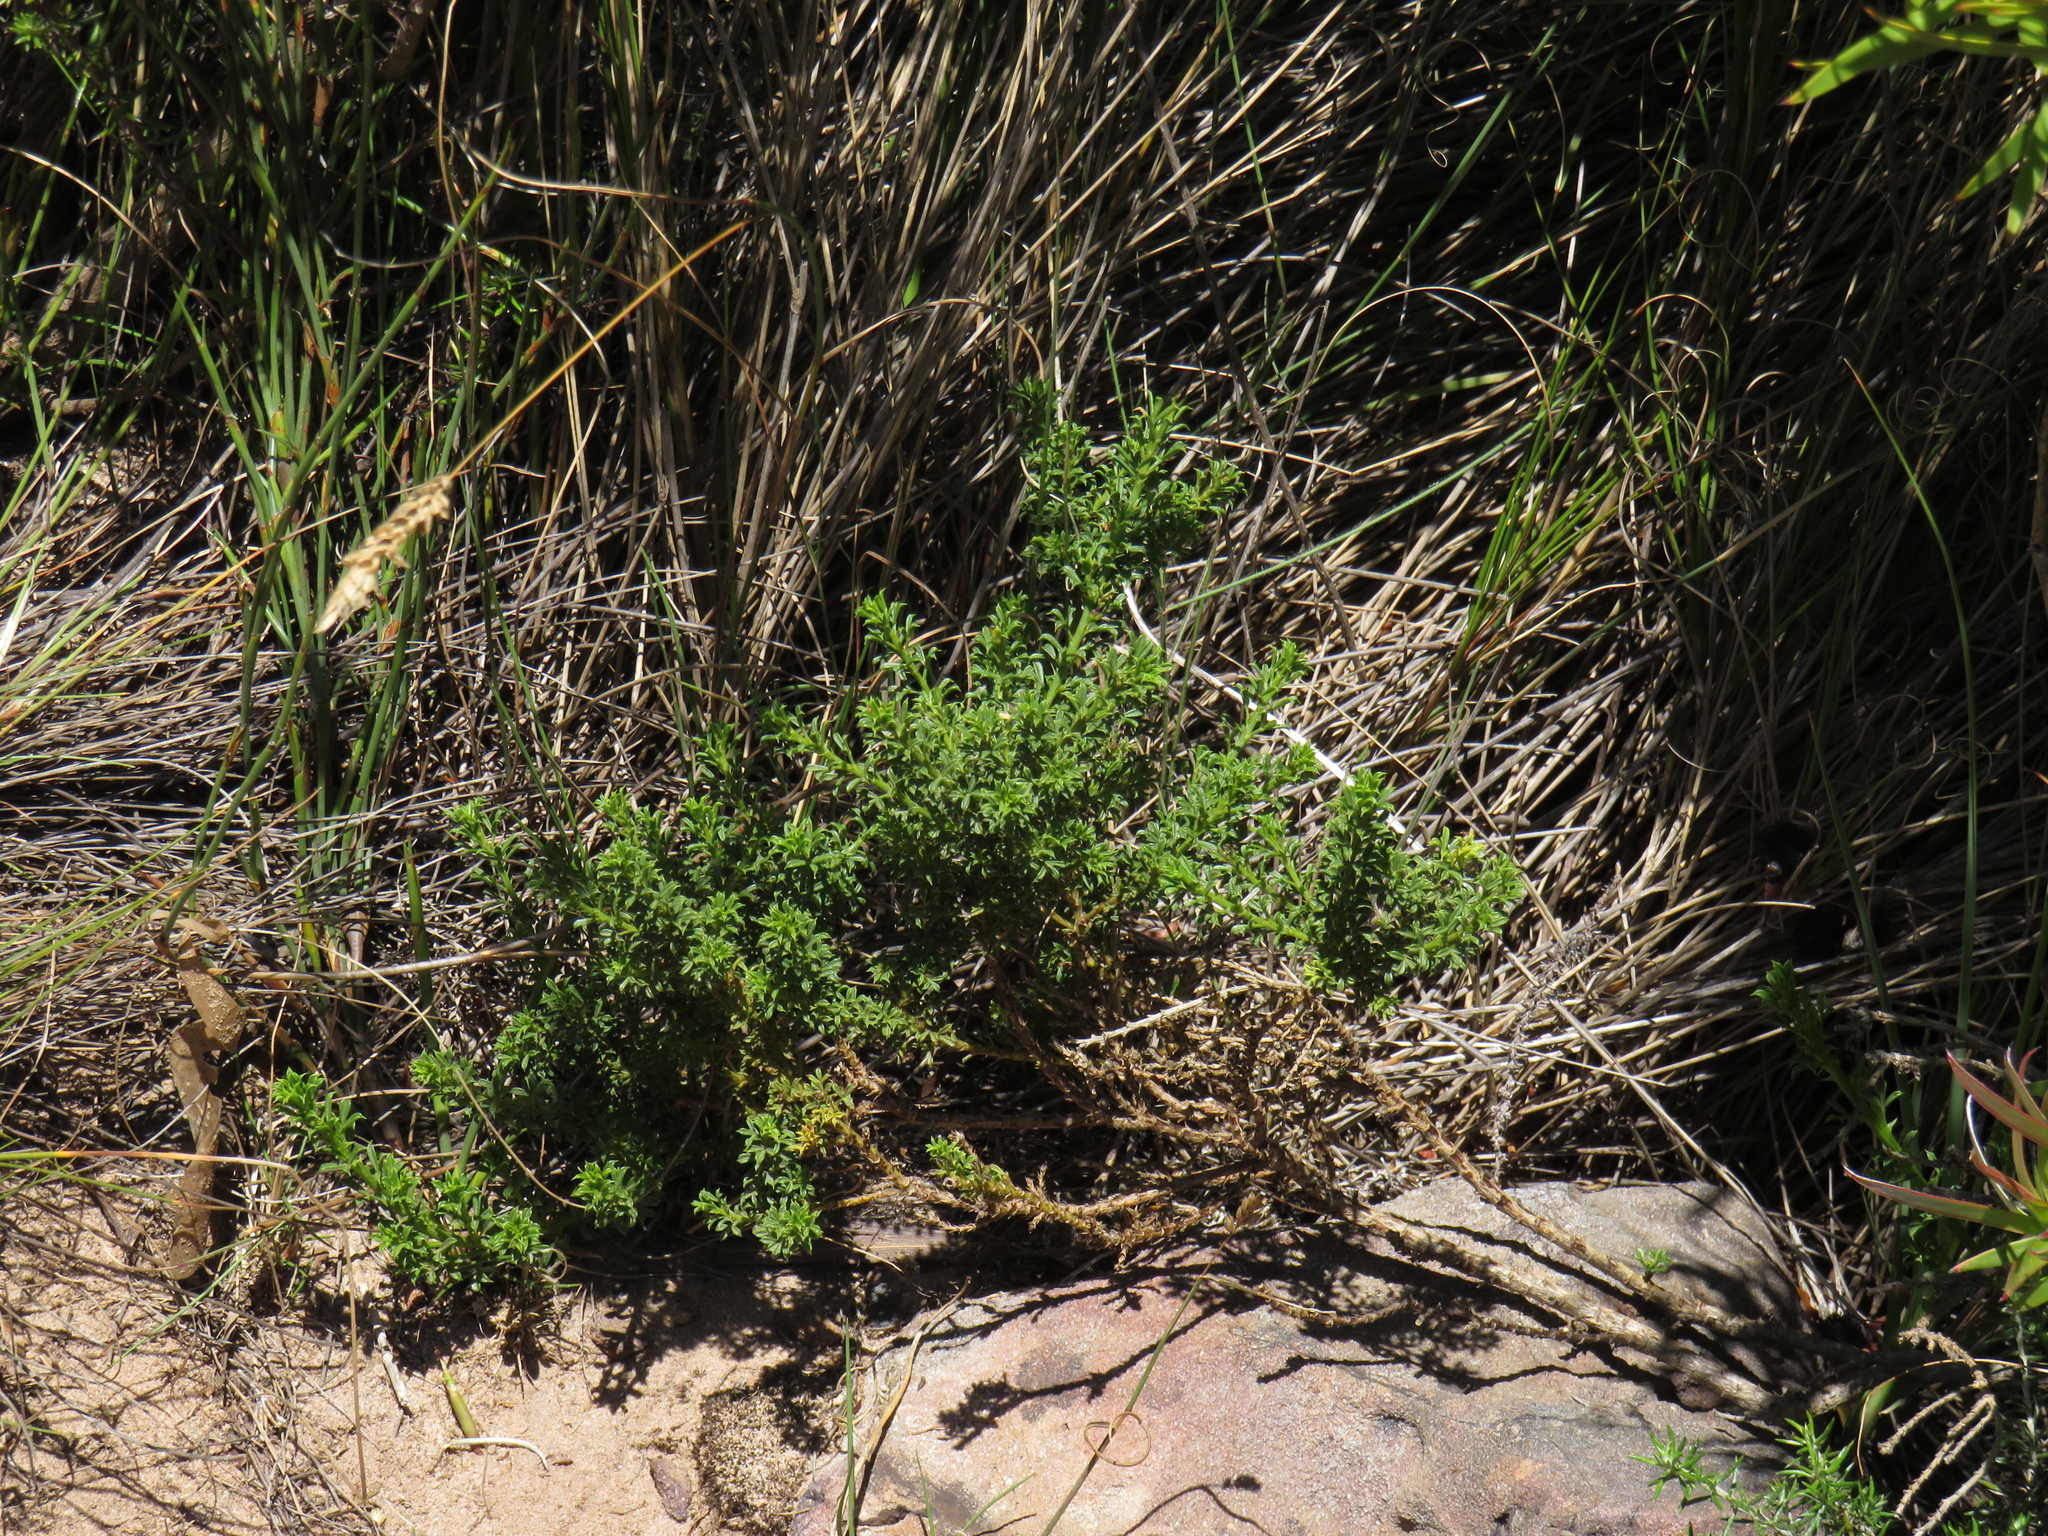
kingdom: Plantae
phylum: Tracheophyta
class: Magnoliopsida
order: Fabales
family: Fabaceae
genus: Psoralea
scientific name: Psoralea aculeata
